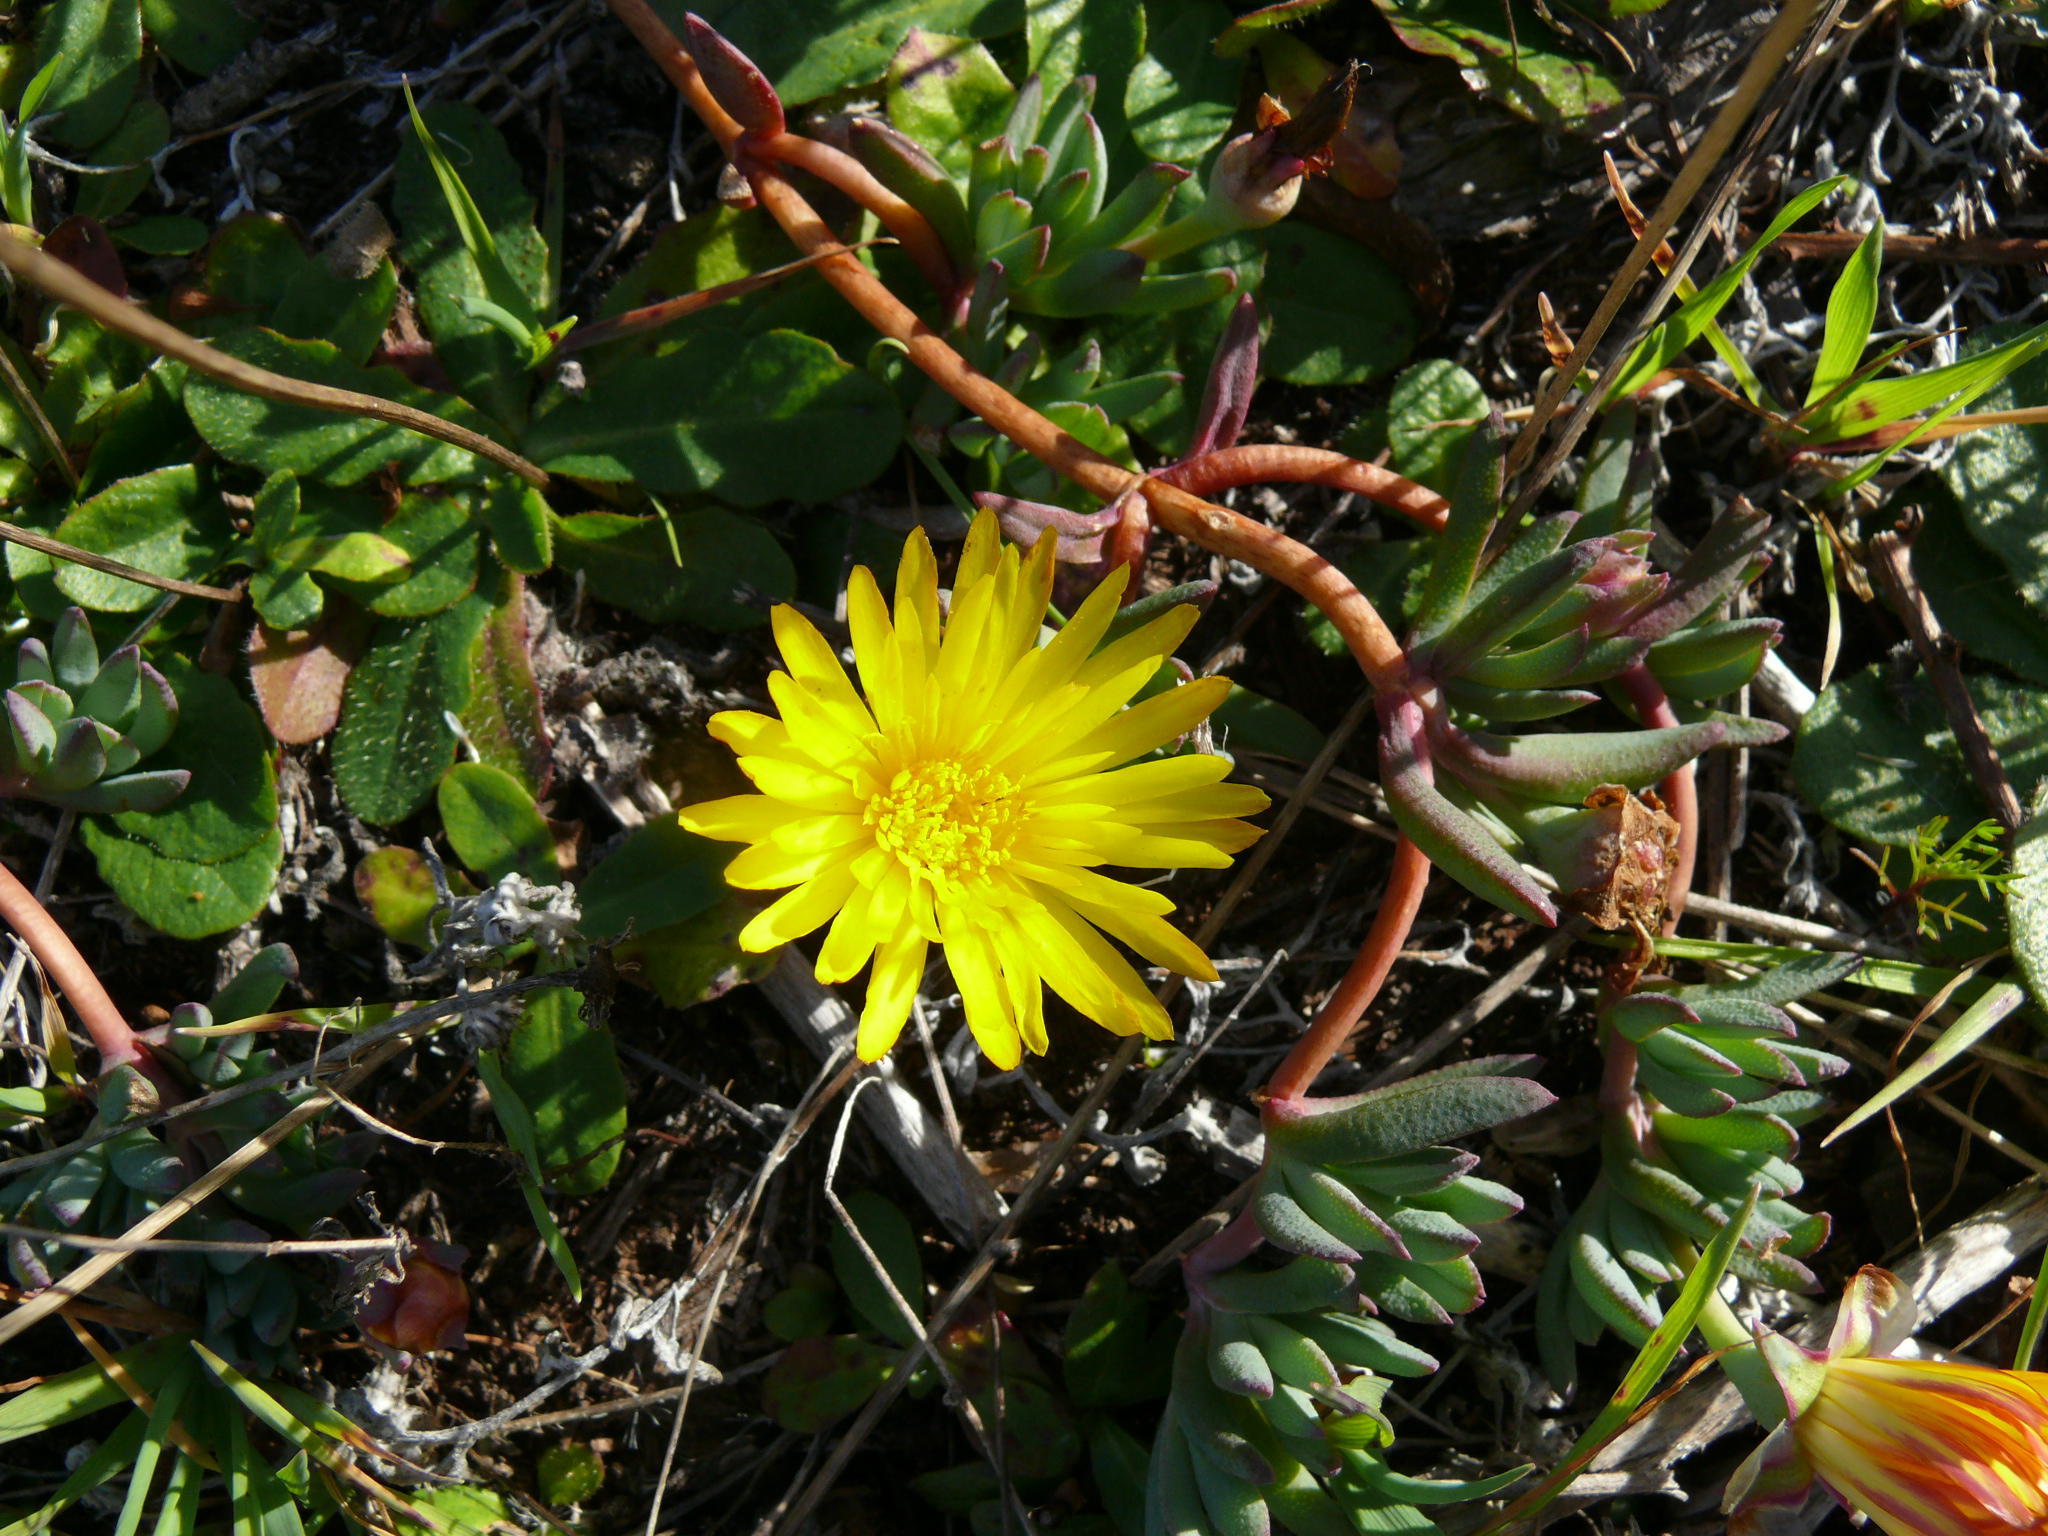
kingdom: Plantae
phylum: Tracheophyta
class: Magnoliopsida
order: Caryophyllales
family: Aizoaceae
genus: Lampranthus
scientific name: Lampranthus reptans
